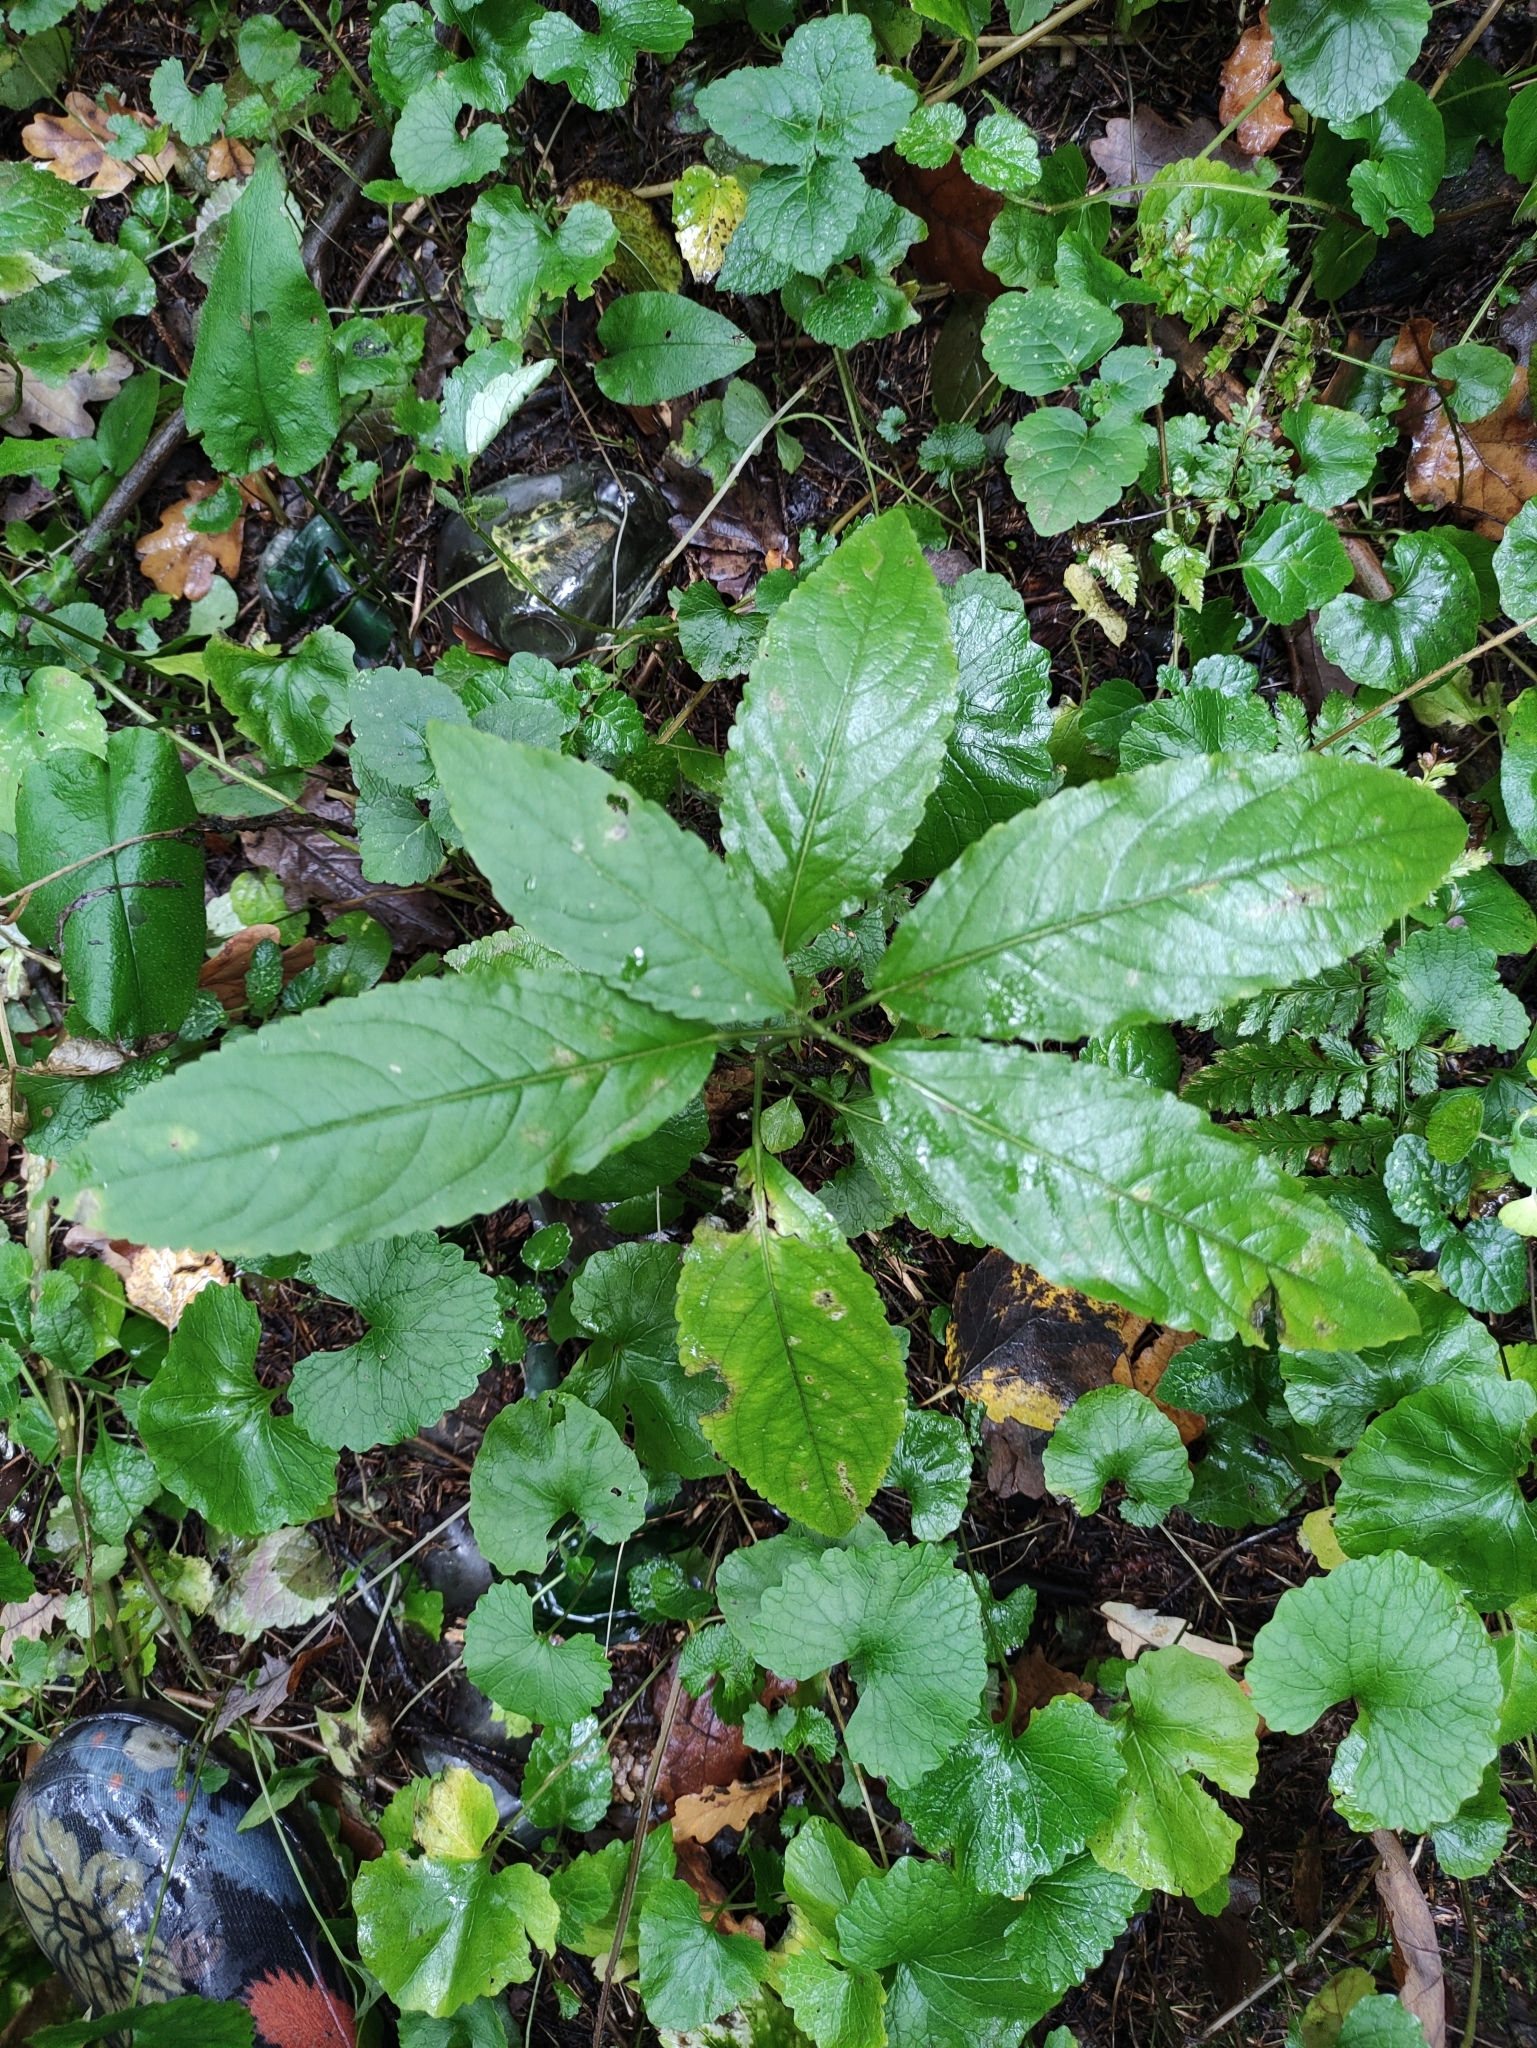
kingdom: Plantae
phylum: Tracheophyta
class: Magnoliopsida
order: Malpighiales
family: Euphorbiaceae
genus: Mercurialis
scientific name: Mercurialis perennis
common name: Dog mercury
